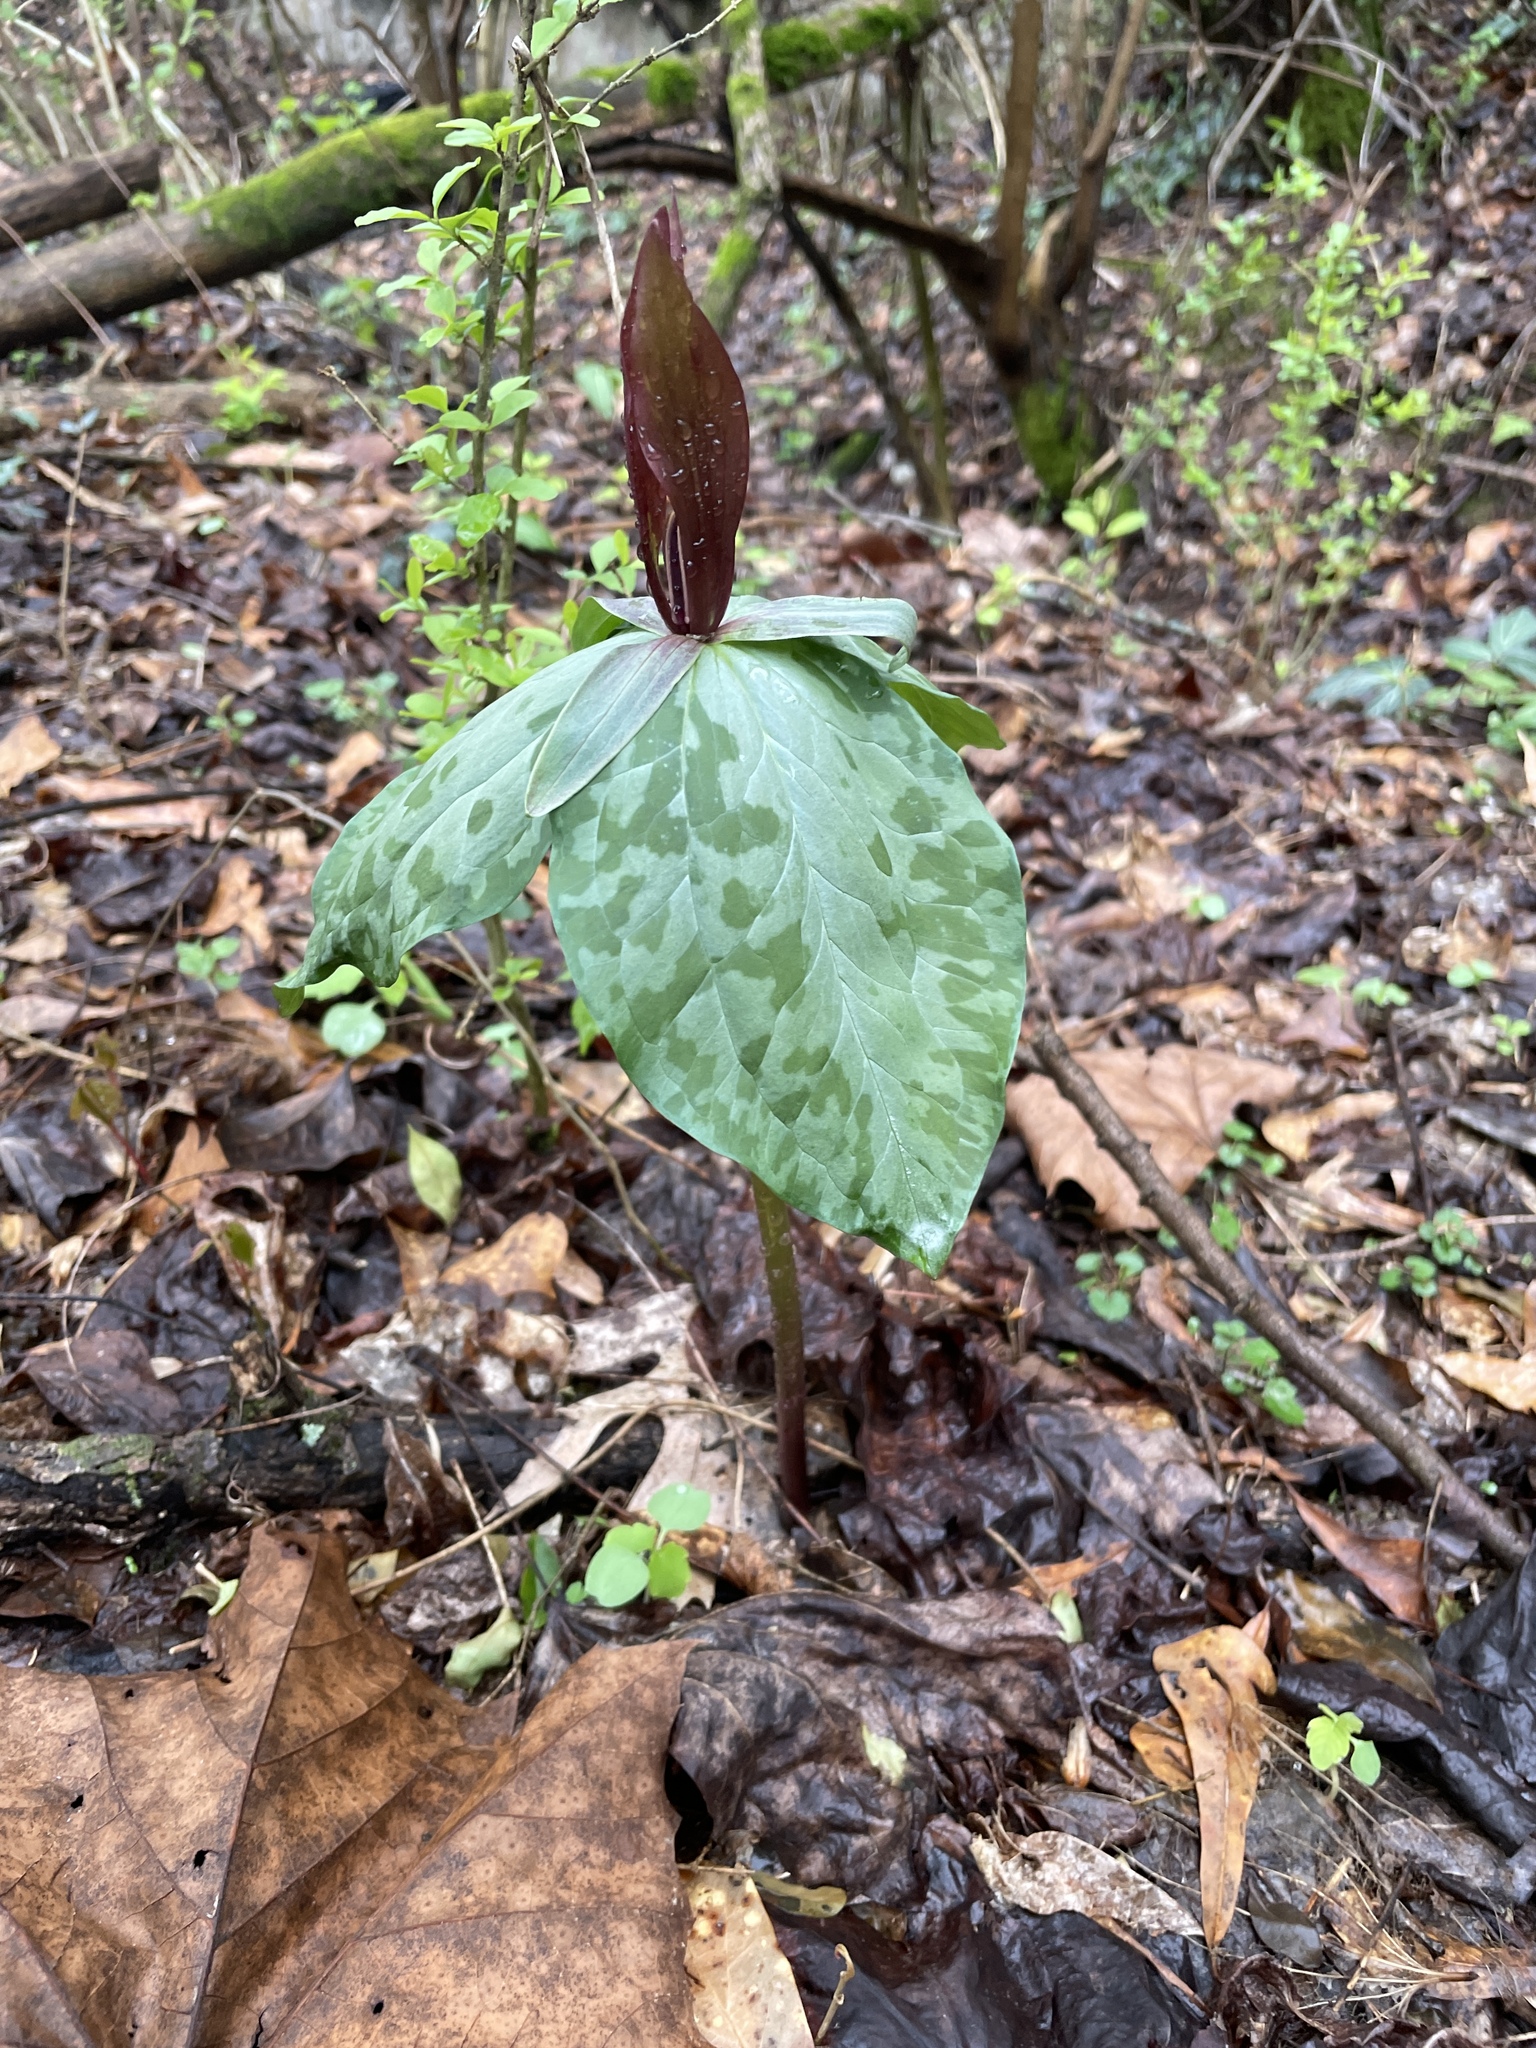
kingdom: Plantae
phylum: Tracheophyta
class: Liliopsida
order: Liliales
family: Melanthiaceae
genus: Trillium
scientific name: Trillium cuneatum
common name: Cuneate trillium
